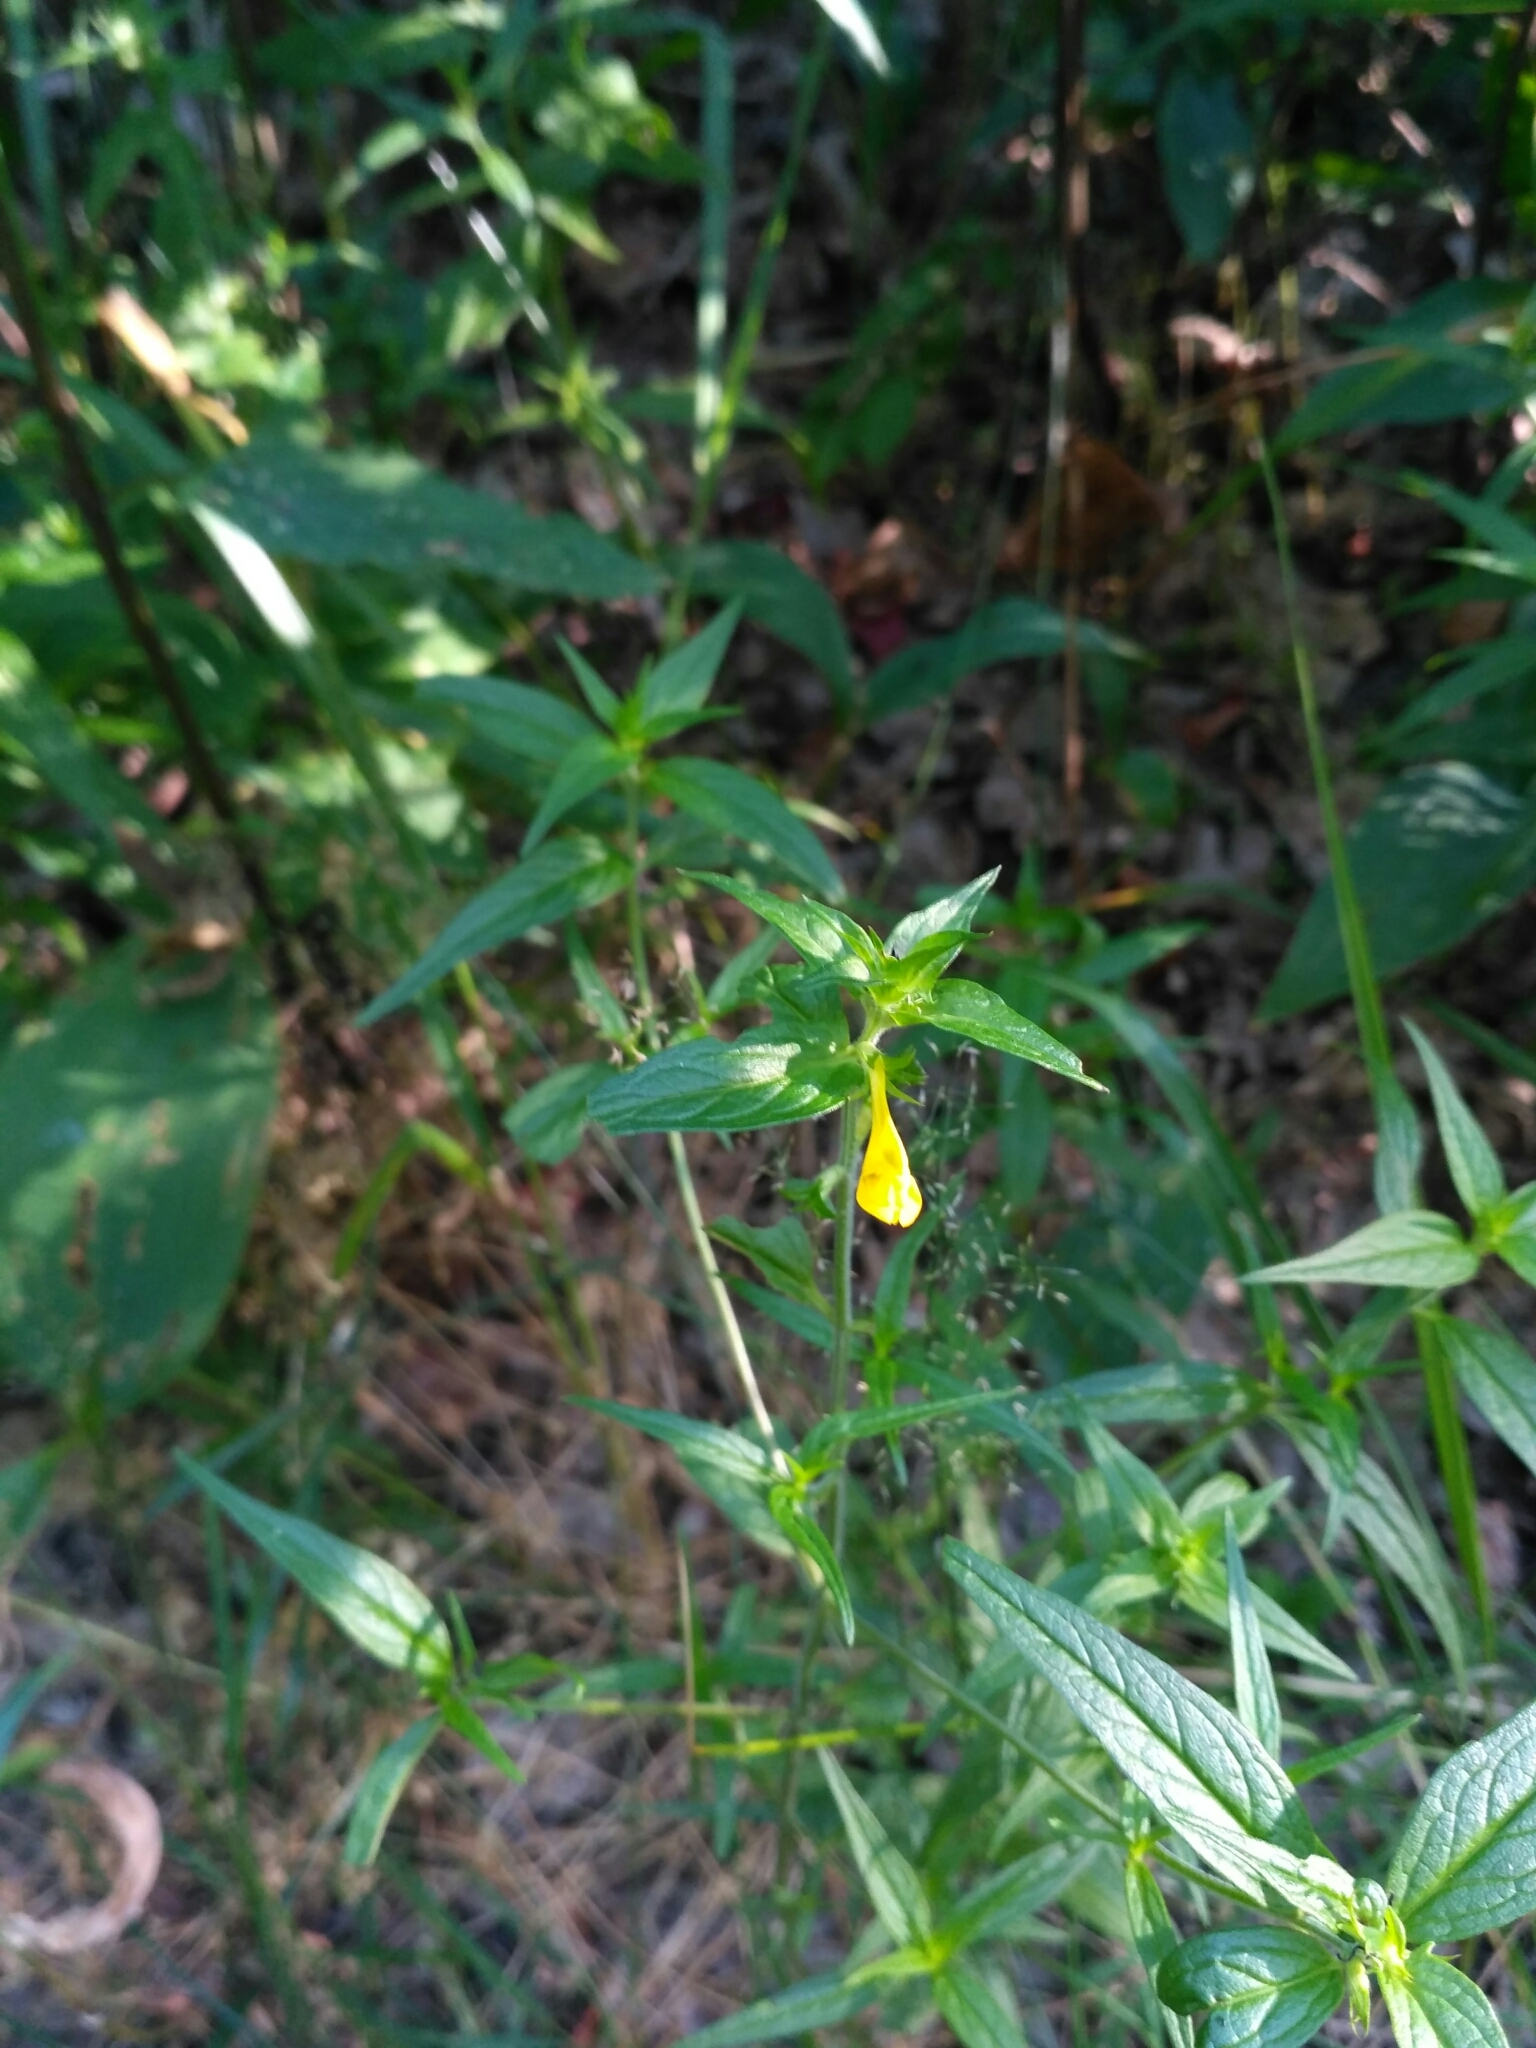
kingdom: Plantae
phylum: Tracheophyta
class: Magnoliopsida
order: Lamiales
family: Orobanchaceae
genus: Melampyrum
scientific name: Melampyrum nemorosum
